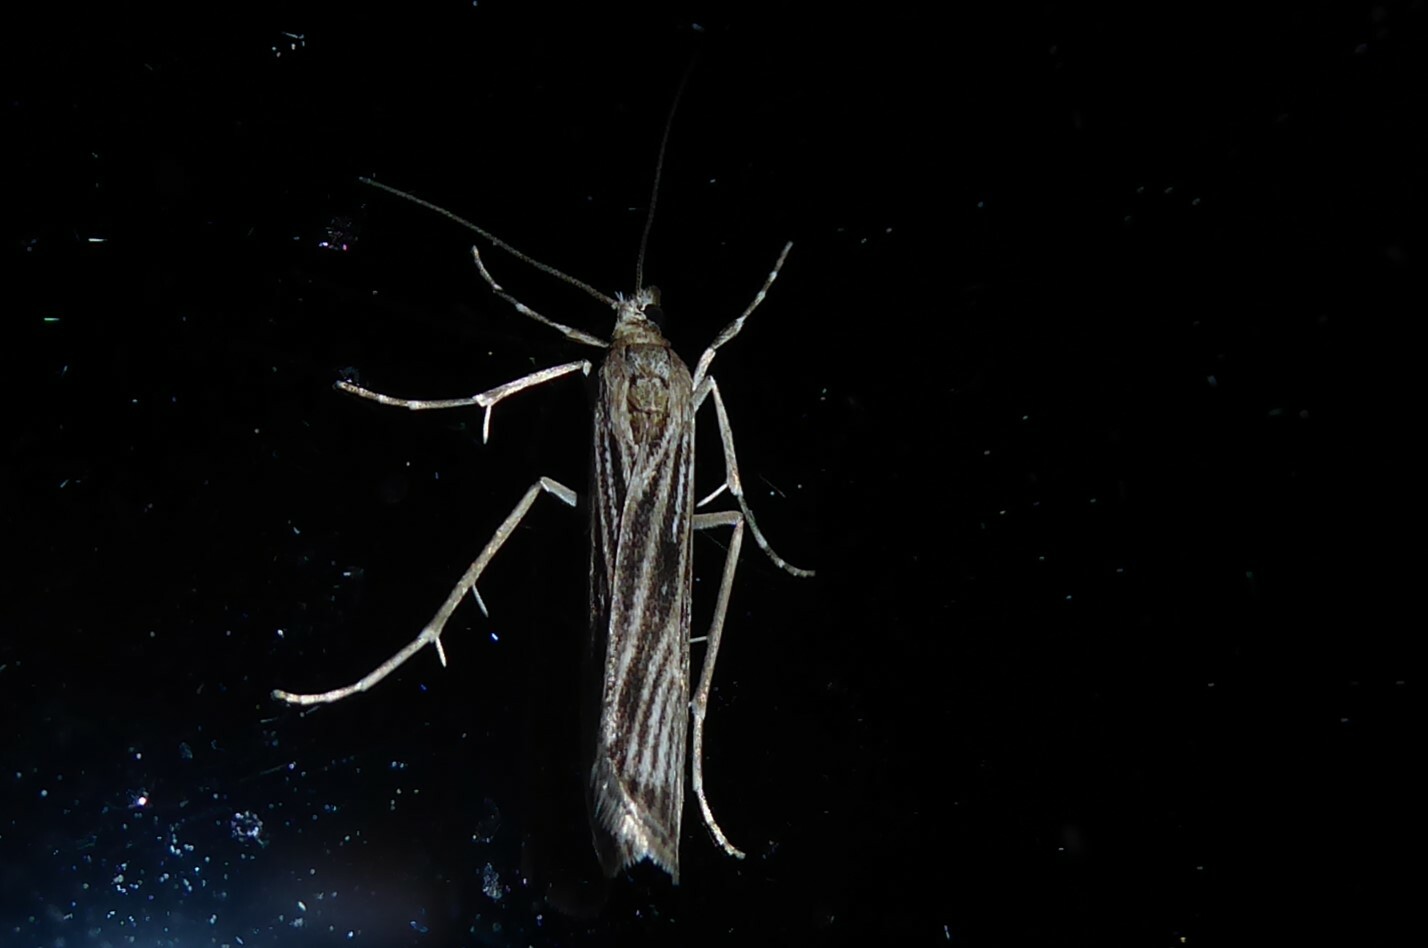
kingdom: Animalia
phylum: Arthropoda
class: Insecta
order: Lepidoptera
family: Crambidae
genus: Eudonia
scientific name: Eudonia atmogramma
